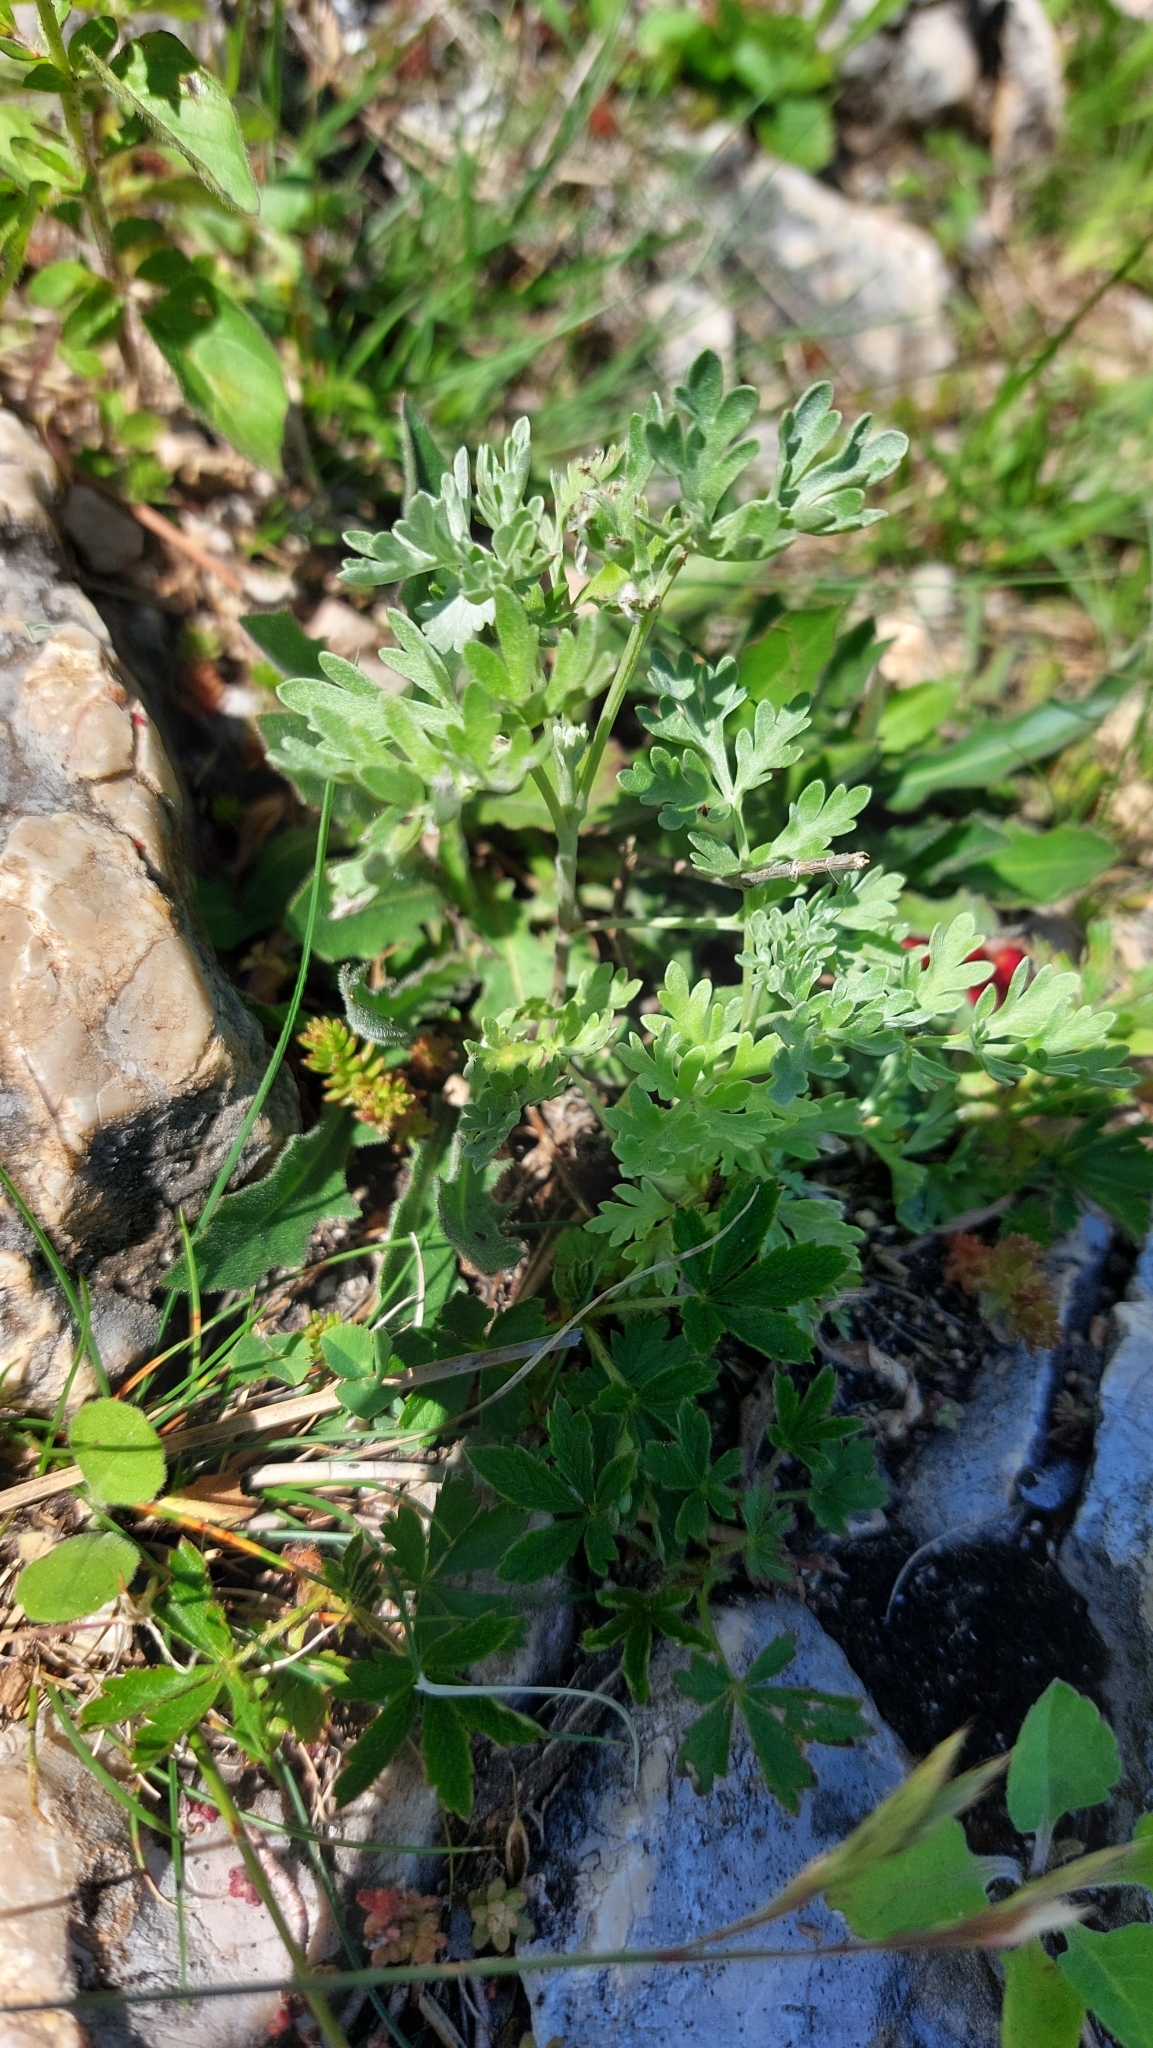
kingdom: Plantae
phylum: Tracheophyta
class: Magnoliopsida
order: Asterales
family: Asteraceae
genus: Artemisia
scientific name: Artemisia absinthium
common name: Wormwood
